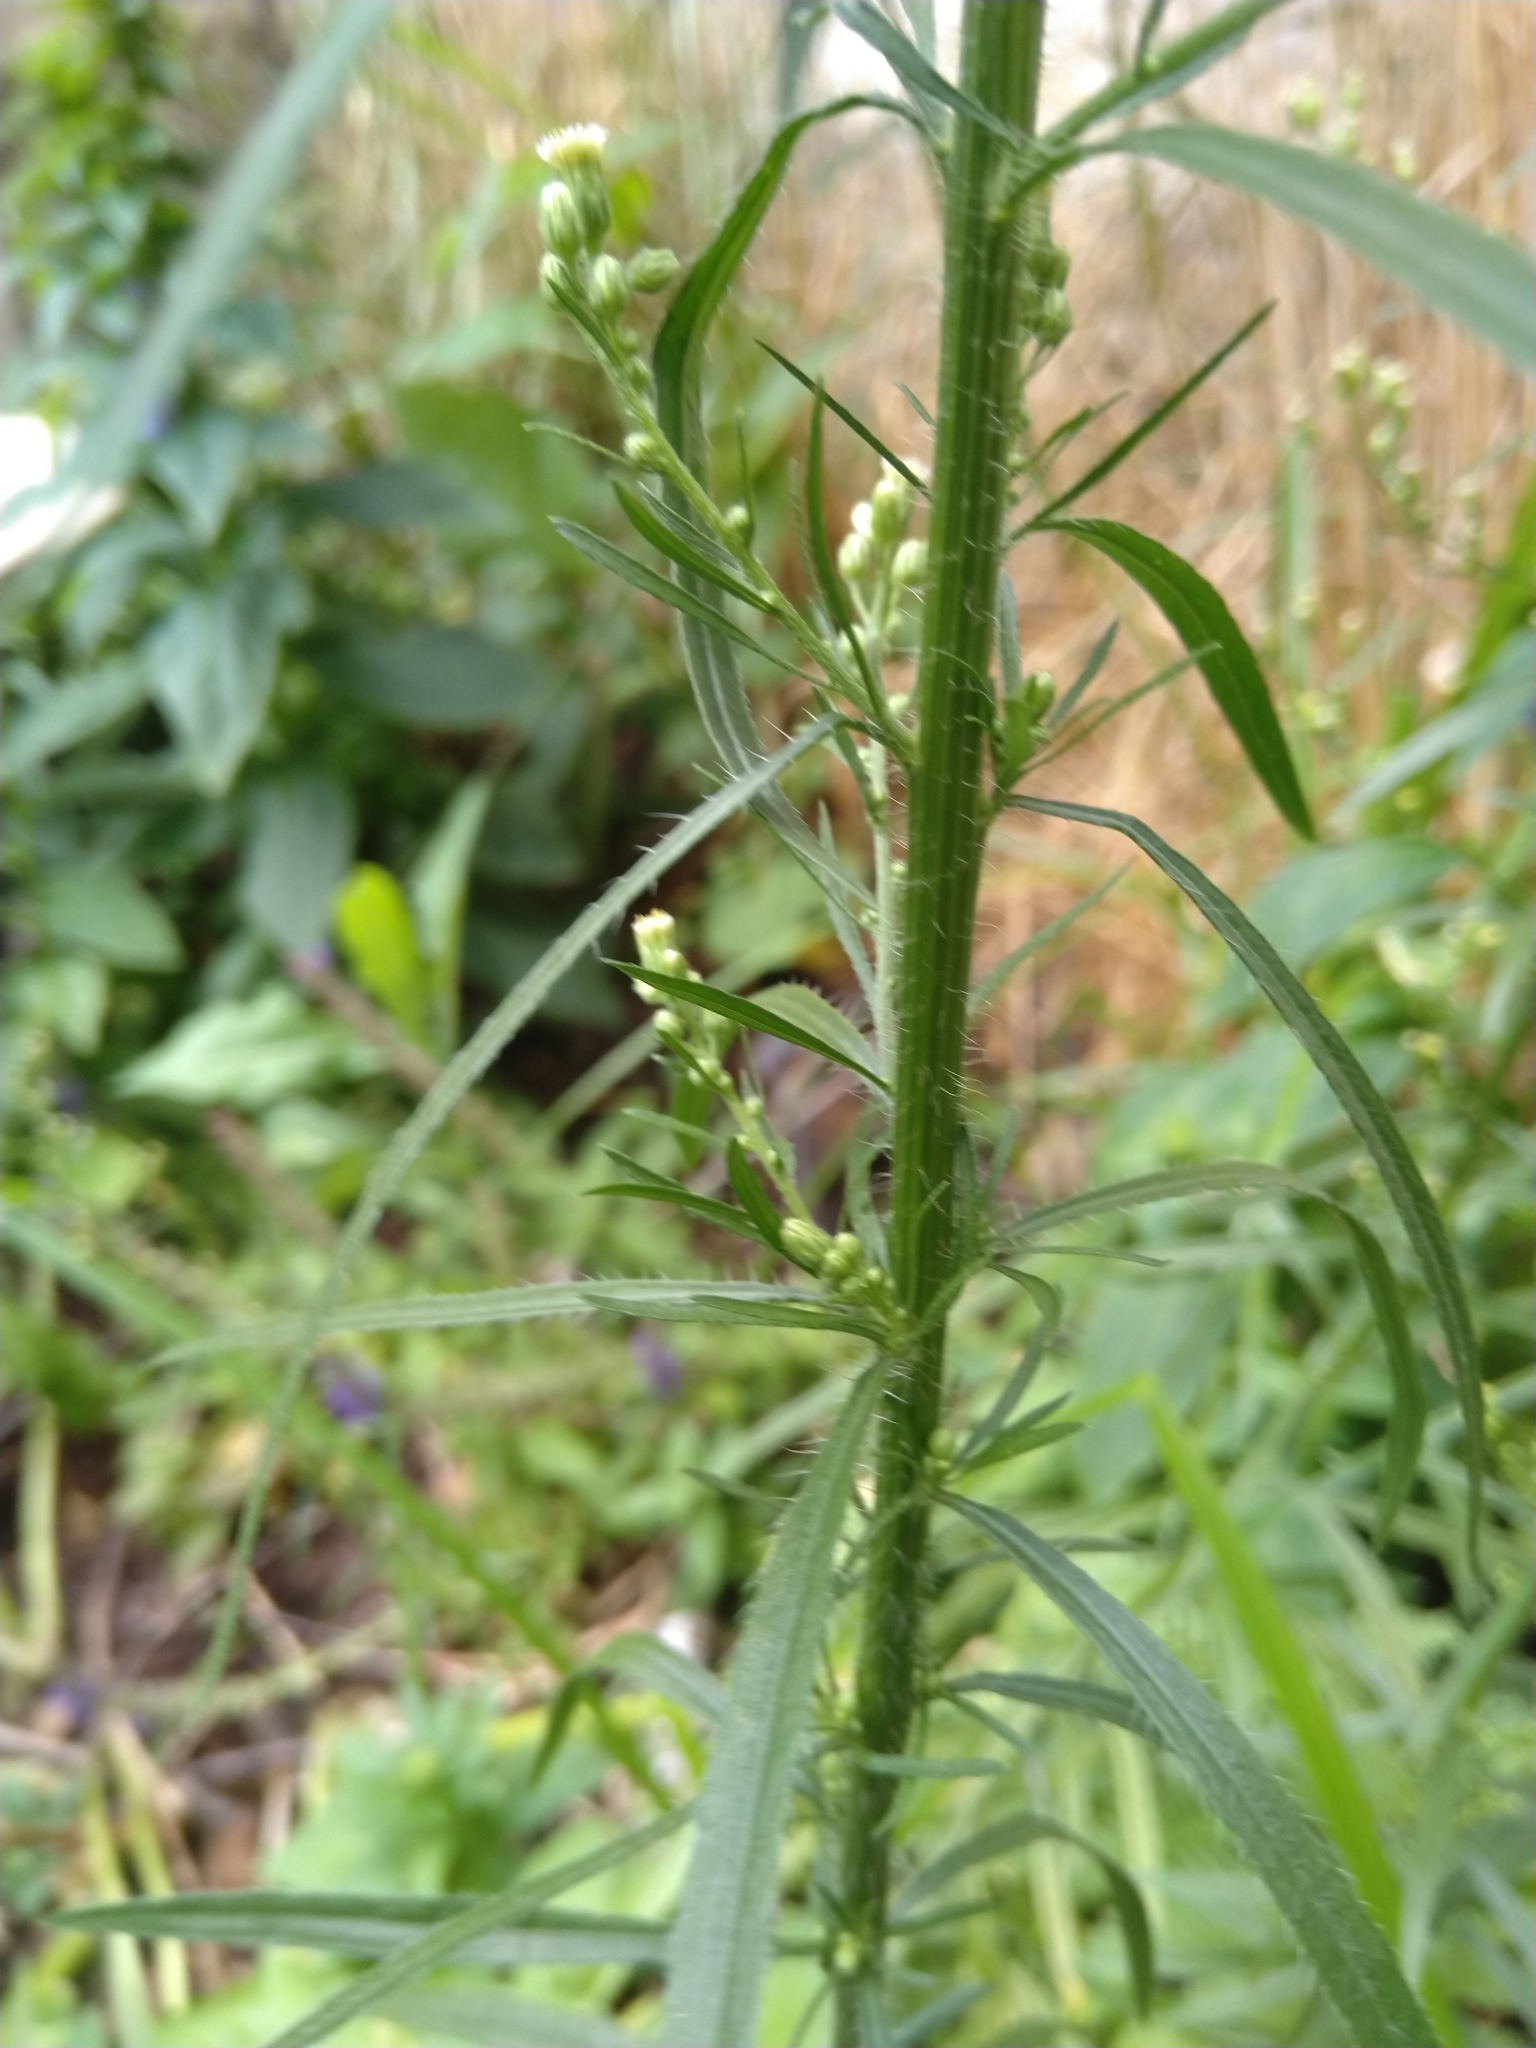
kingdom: Plantae
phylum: Tracheophyta
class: Magnoliopsida
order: Asterales
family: Asteraceae
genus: Erigeron
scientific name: Erigeron canadensis
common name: Canadian fleabane
